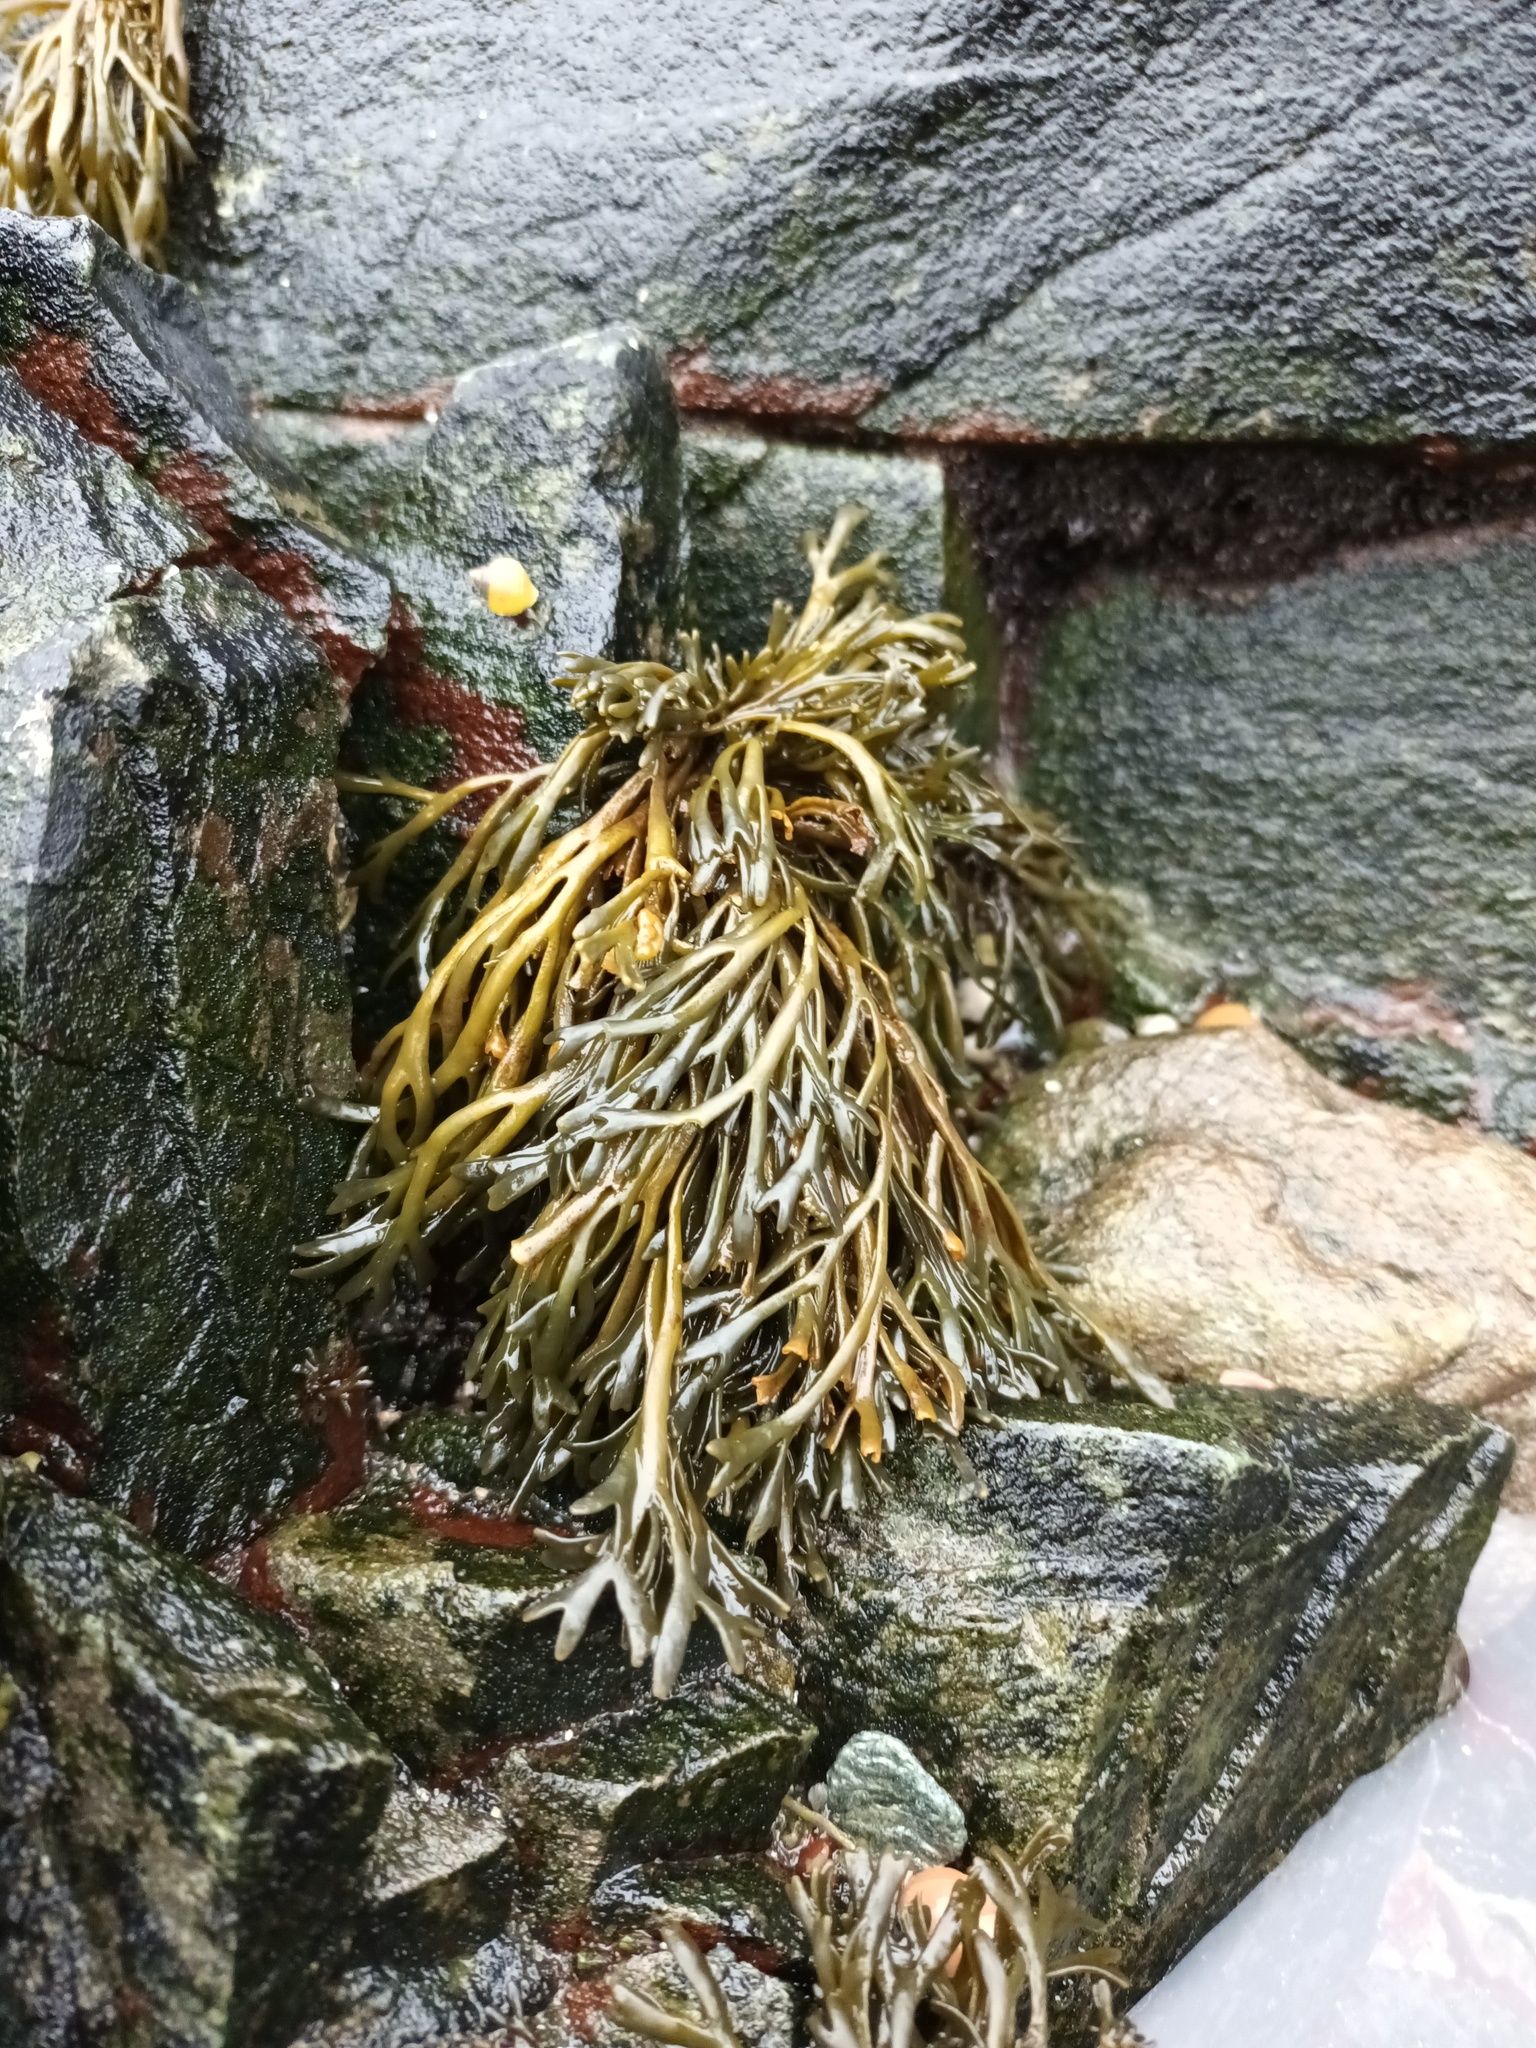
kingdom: Chromista
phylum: Ochrophyta
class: Phaeophyceae
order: Fucales
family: Fucaceae
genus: Pelvetia
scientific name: Pelvetia canaliculata
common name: Channelled wrack
